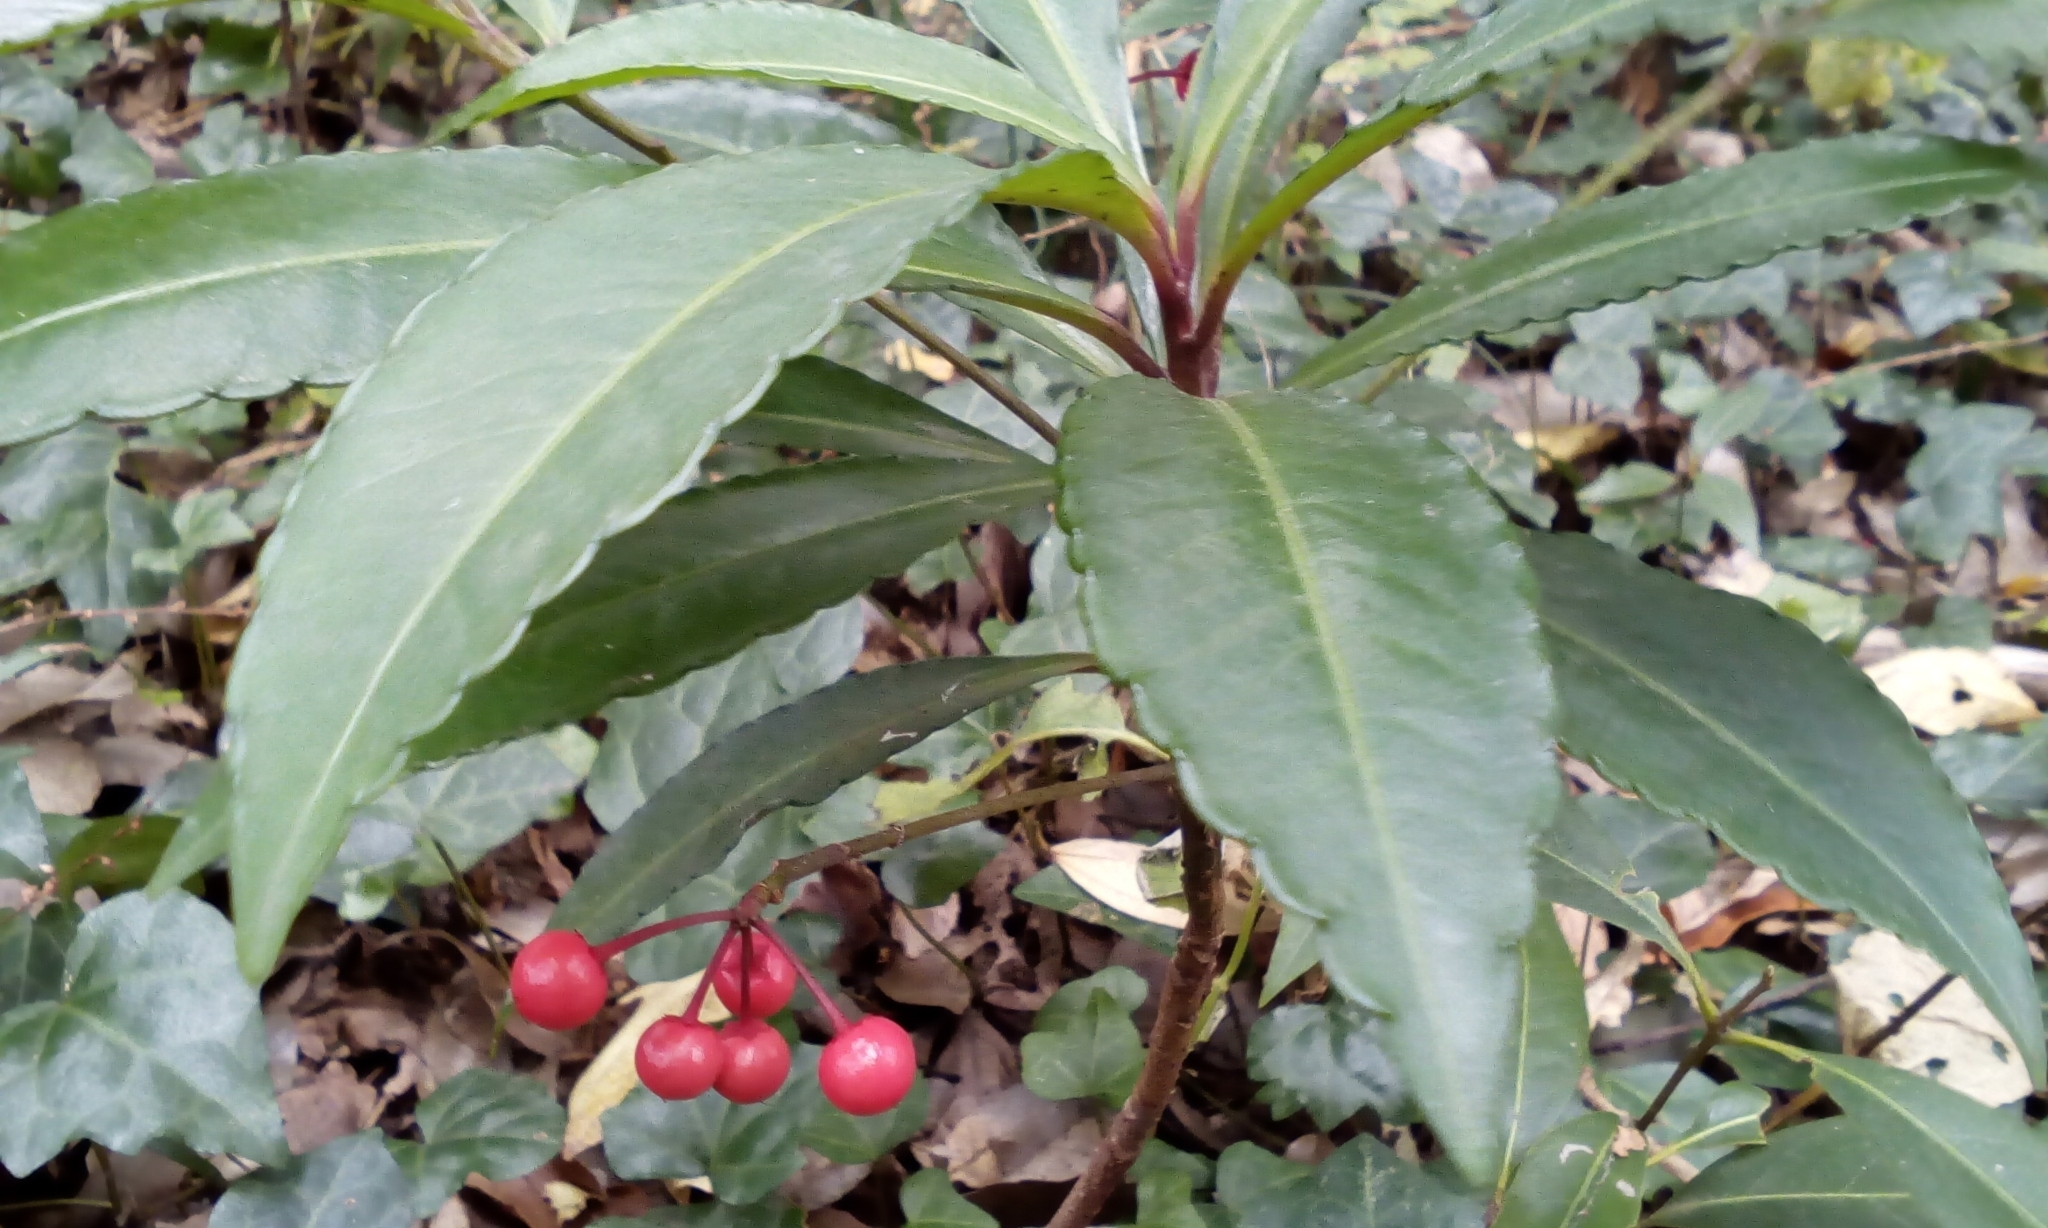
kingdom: Plantae
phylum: Tracheophyta
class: Magnoliopsida
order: Ericales
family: Primulaceae
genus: Ardisia
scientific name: Ardisia crenata
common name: Hen's eyes
